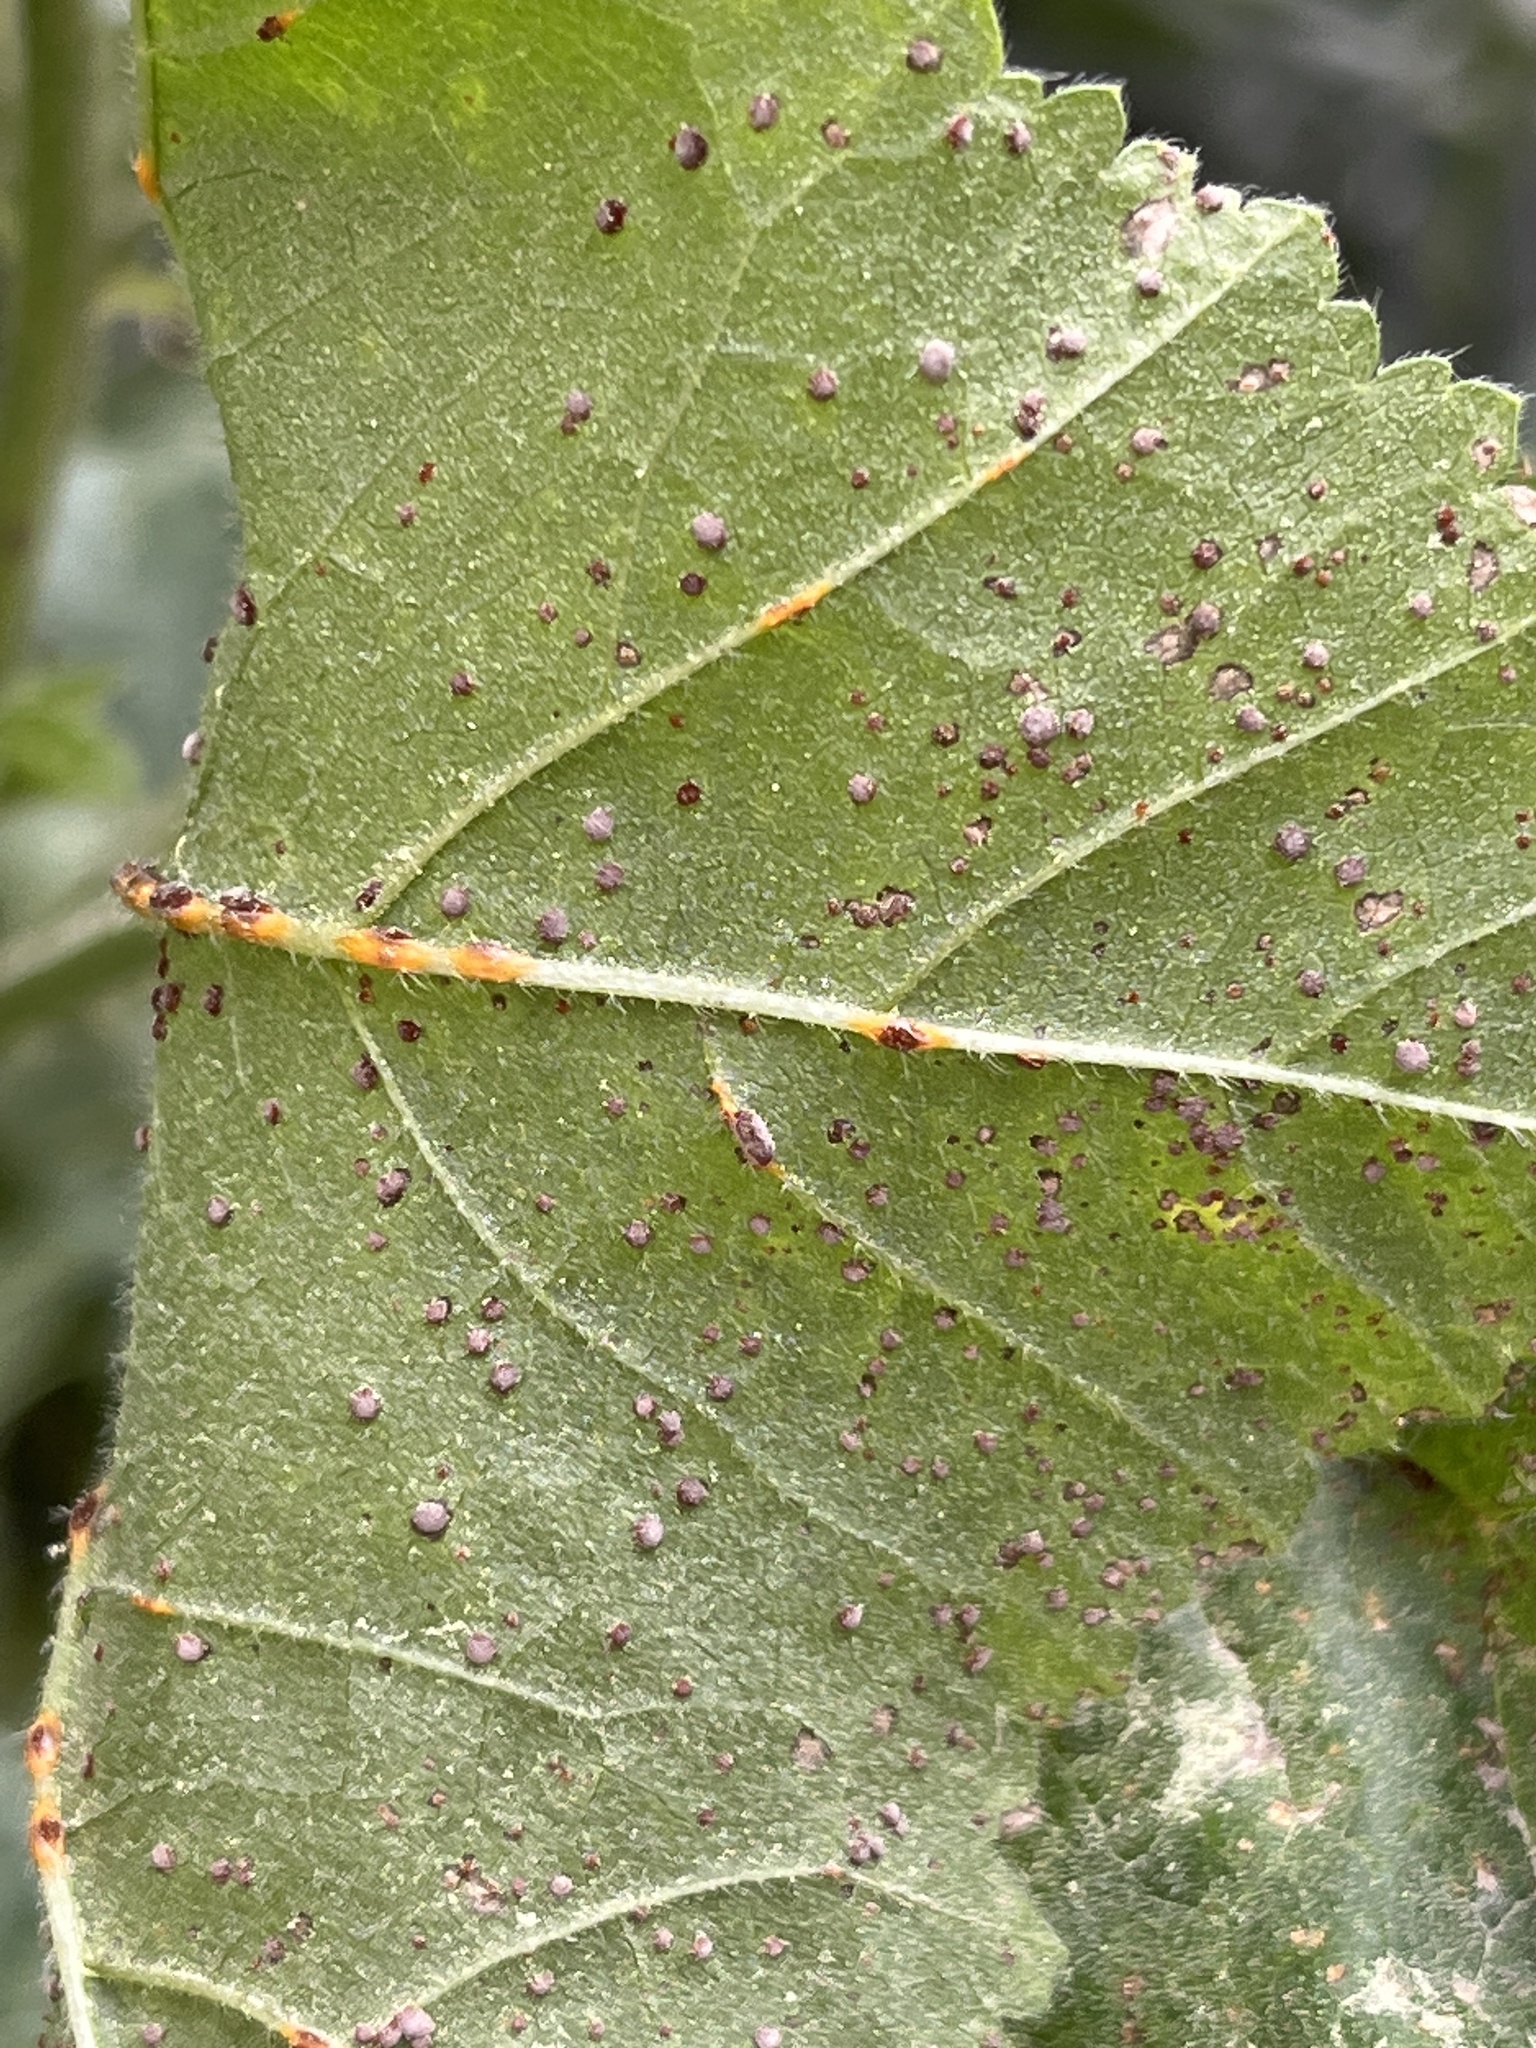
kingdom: Fungi
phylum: Basidiomycota
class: Pucciniomycetes
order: Pucciniales
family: Pucciniaceae
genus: Puccinia
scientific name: Puccinia malvacearum
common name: Hollyhock rust
